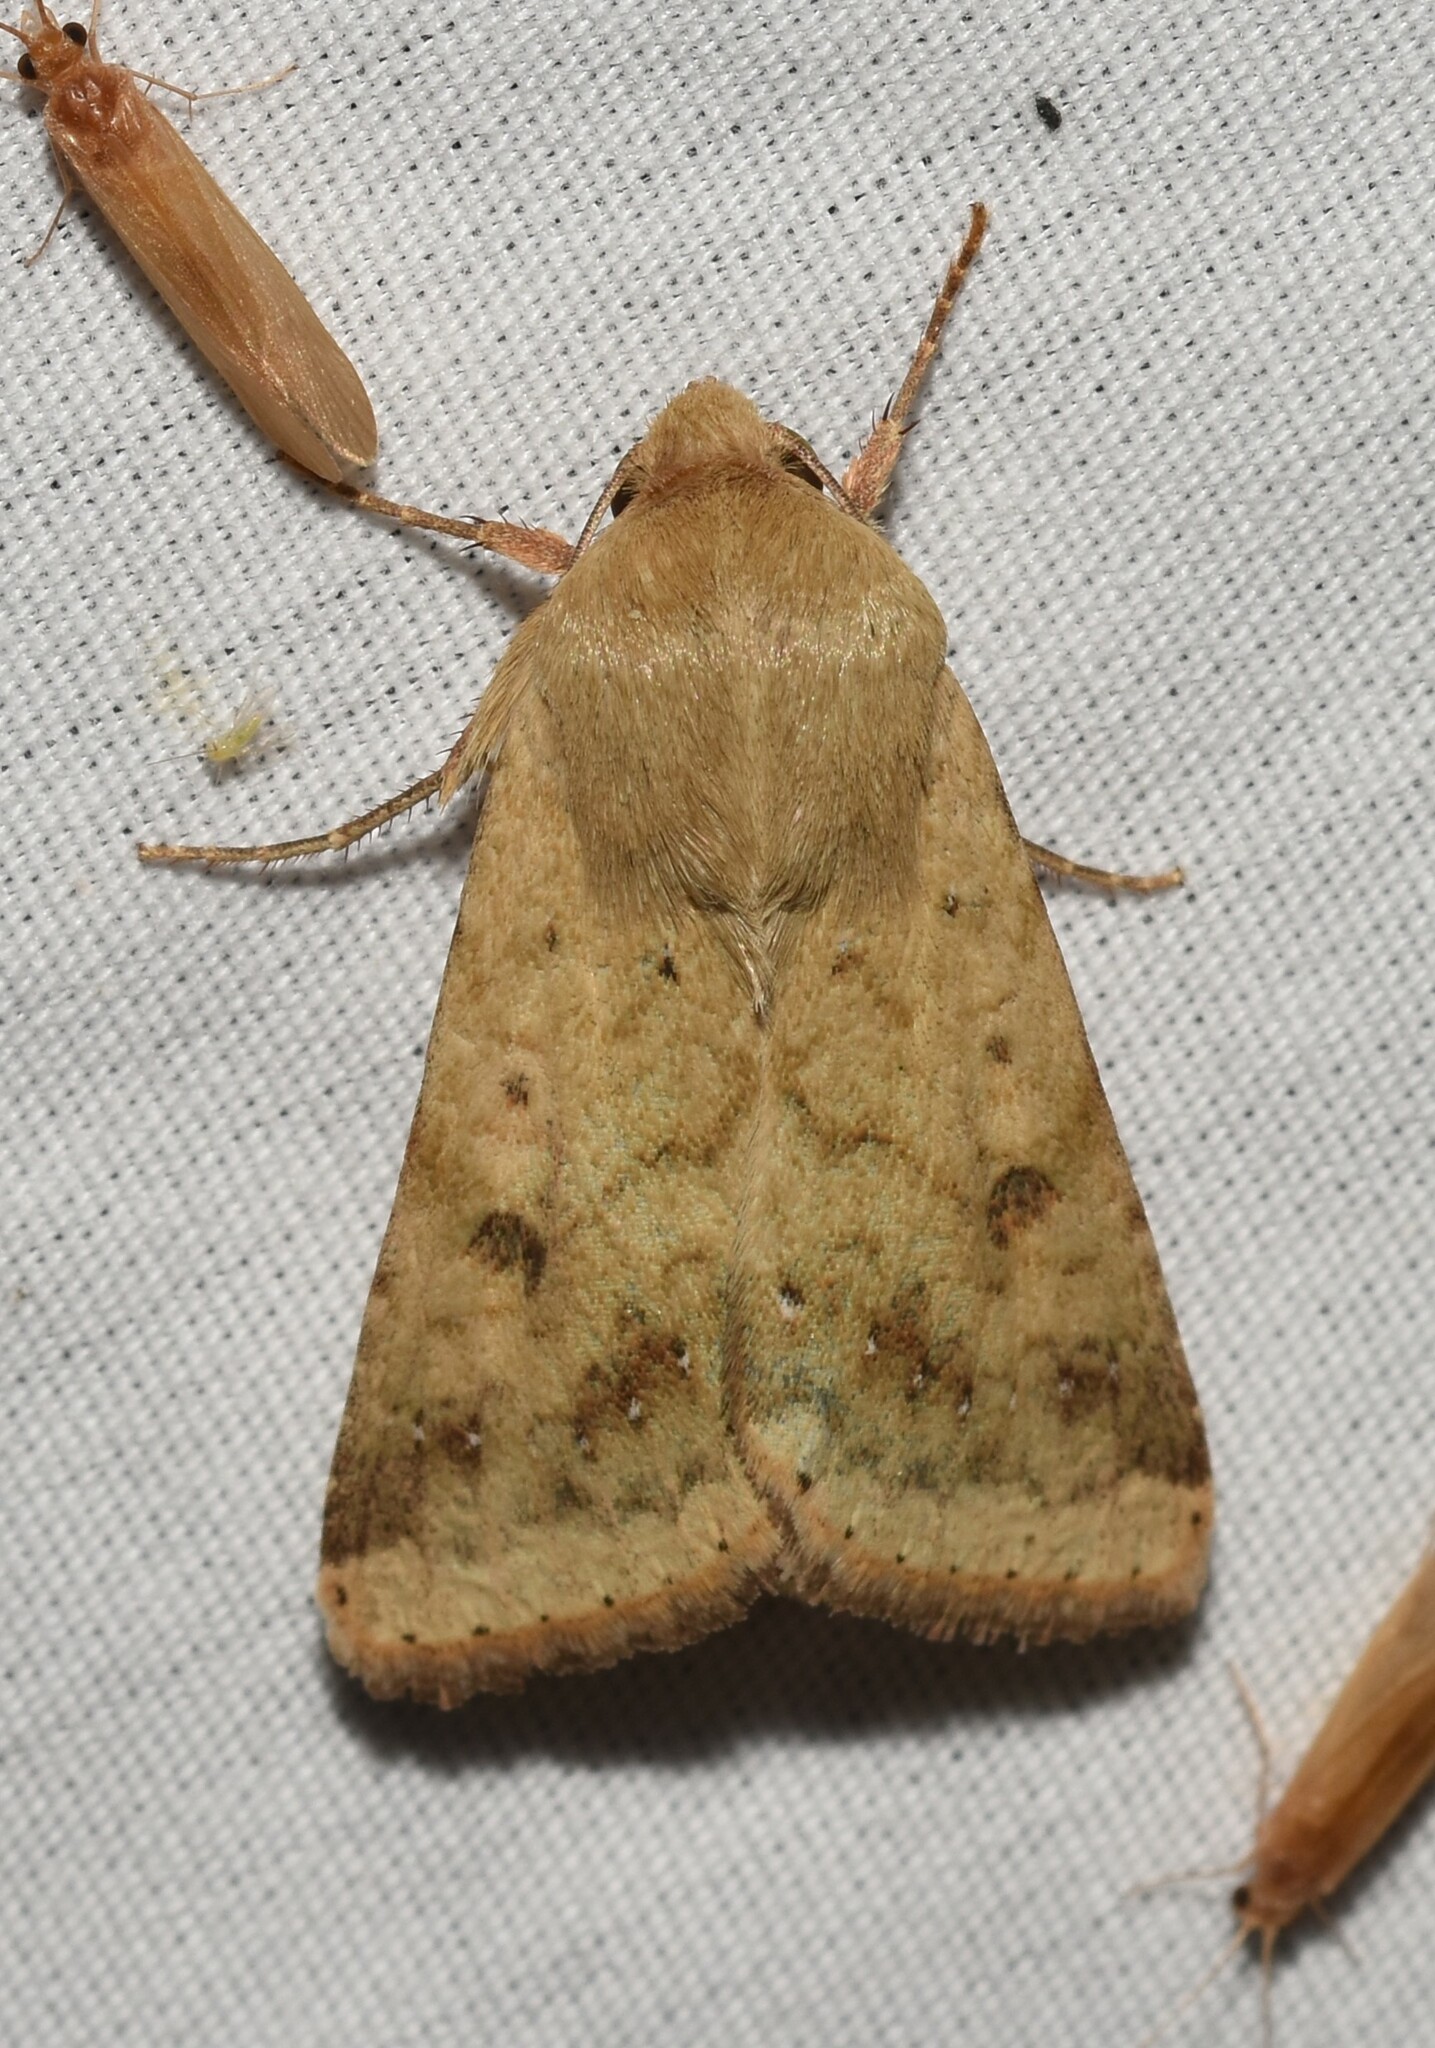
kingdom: Animalia
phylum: Arthropoda
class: Insecta
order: Lepidoptera
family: Noctuidae
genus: Helicoverpa
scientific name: Helicoverpa zea
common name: Bollworm
